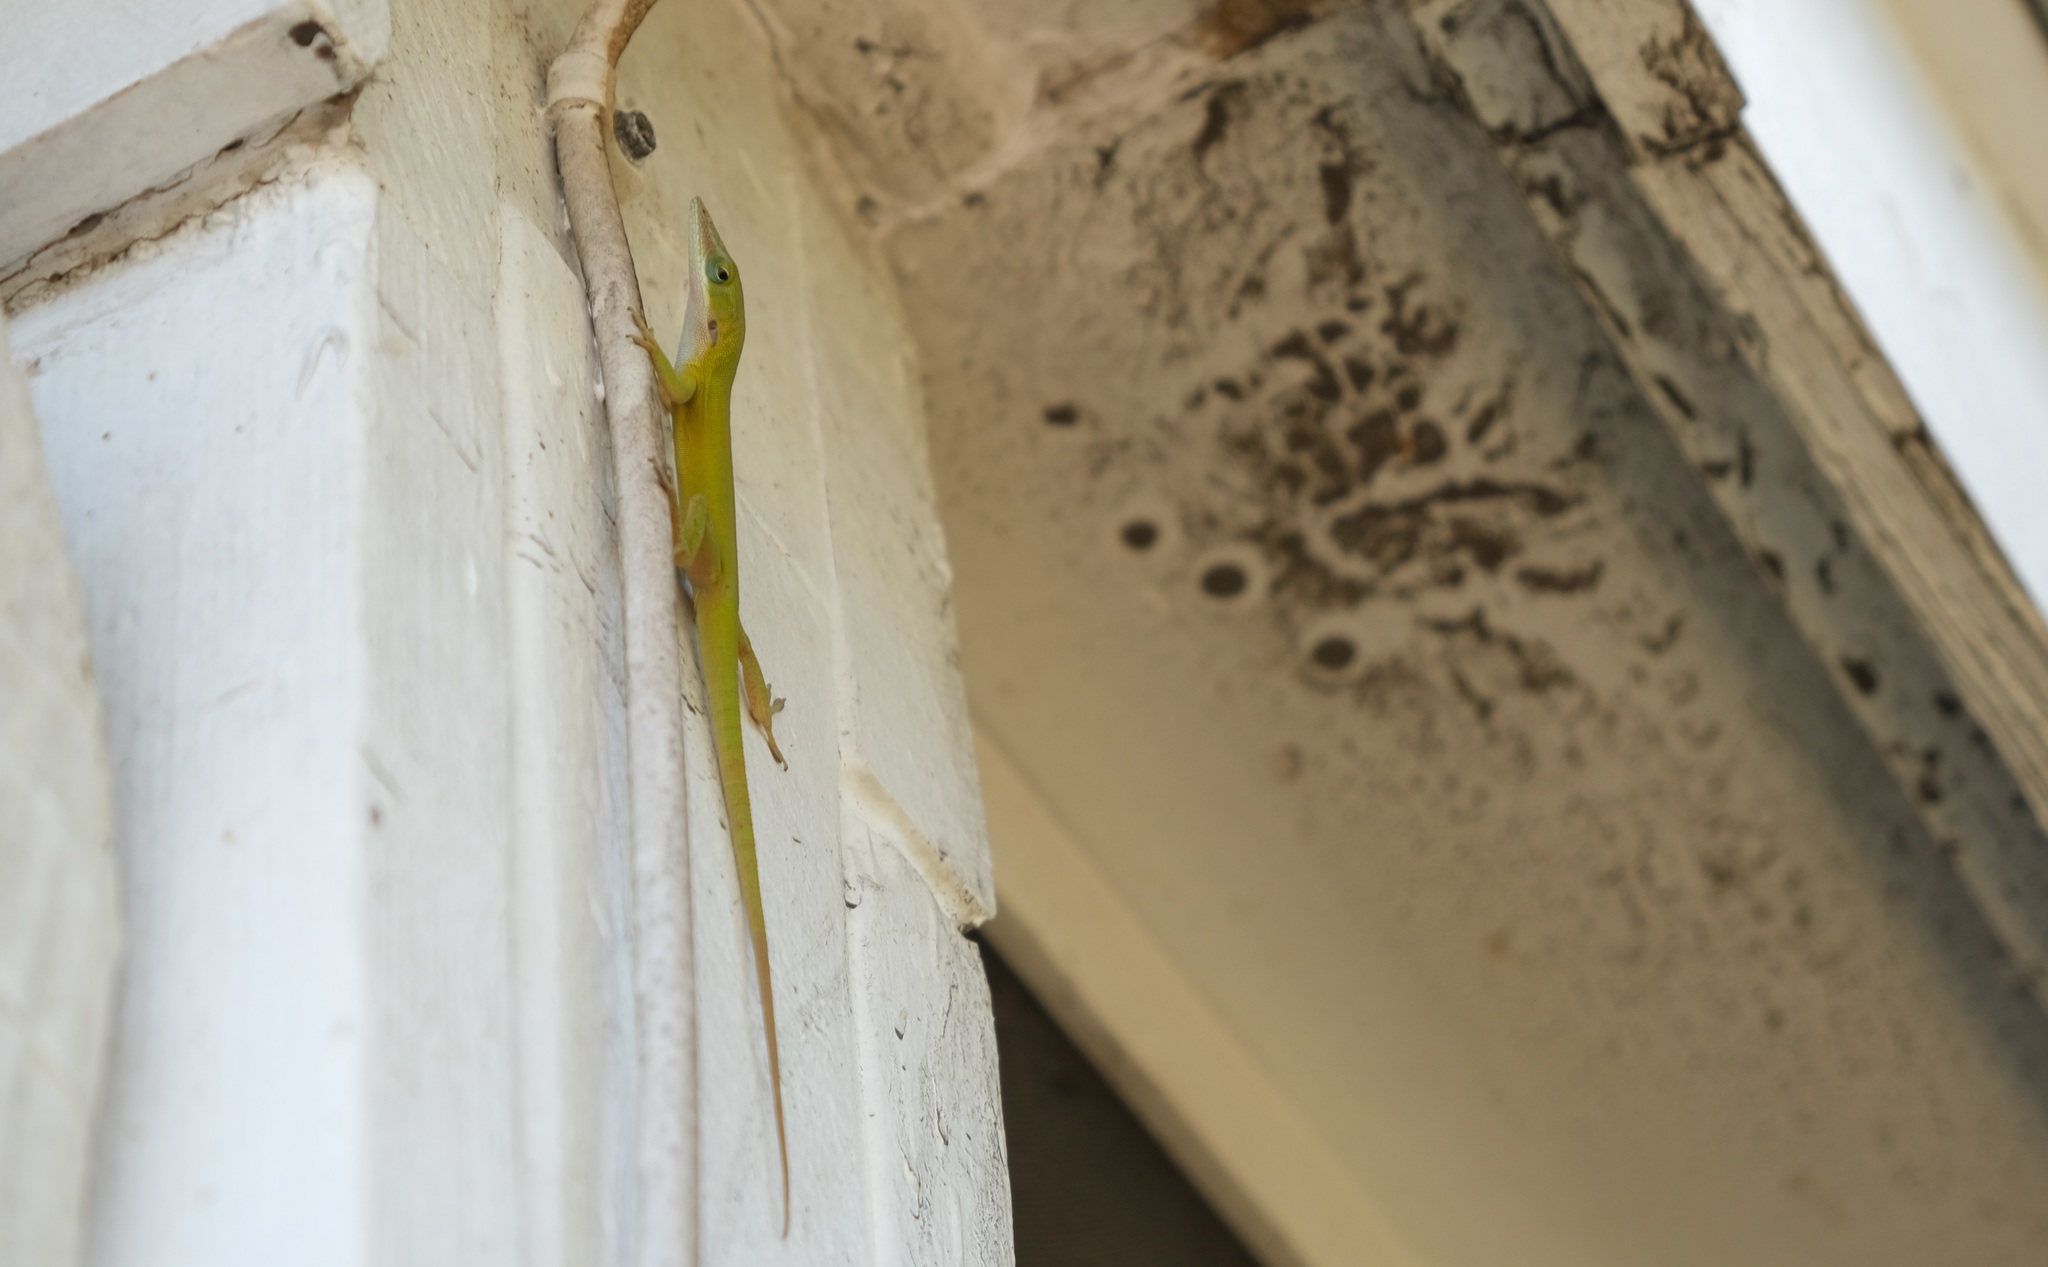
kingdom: Animalia
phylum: Chordata
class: Squamata
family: Dactyloidae
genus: Anolis
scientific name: Anolis allisoni
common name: Allison's anole
